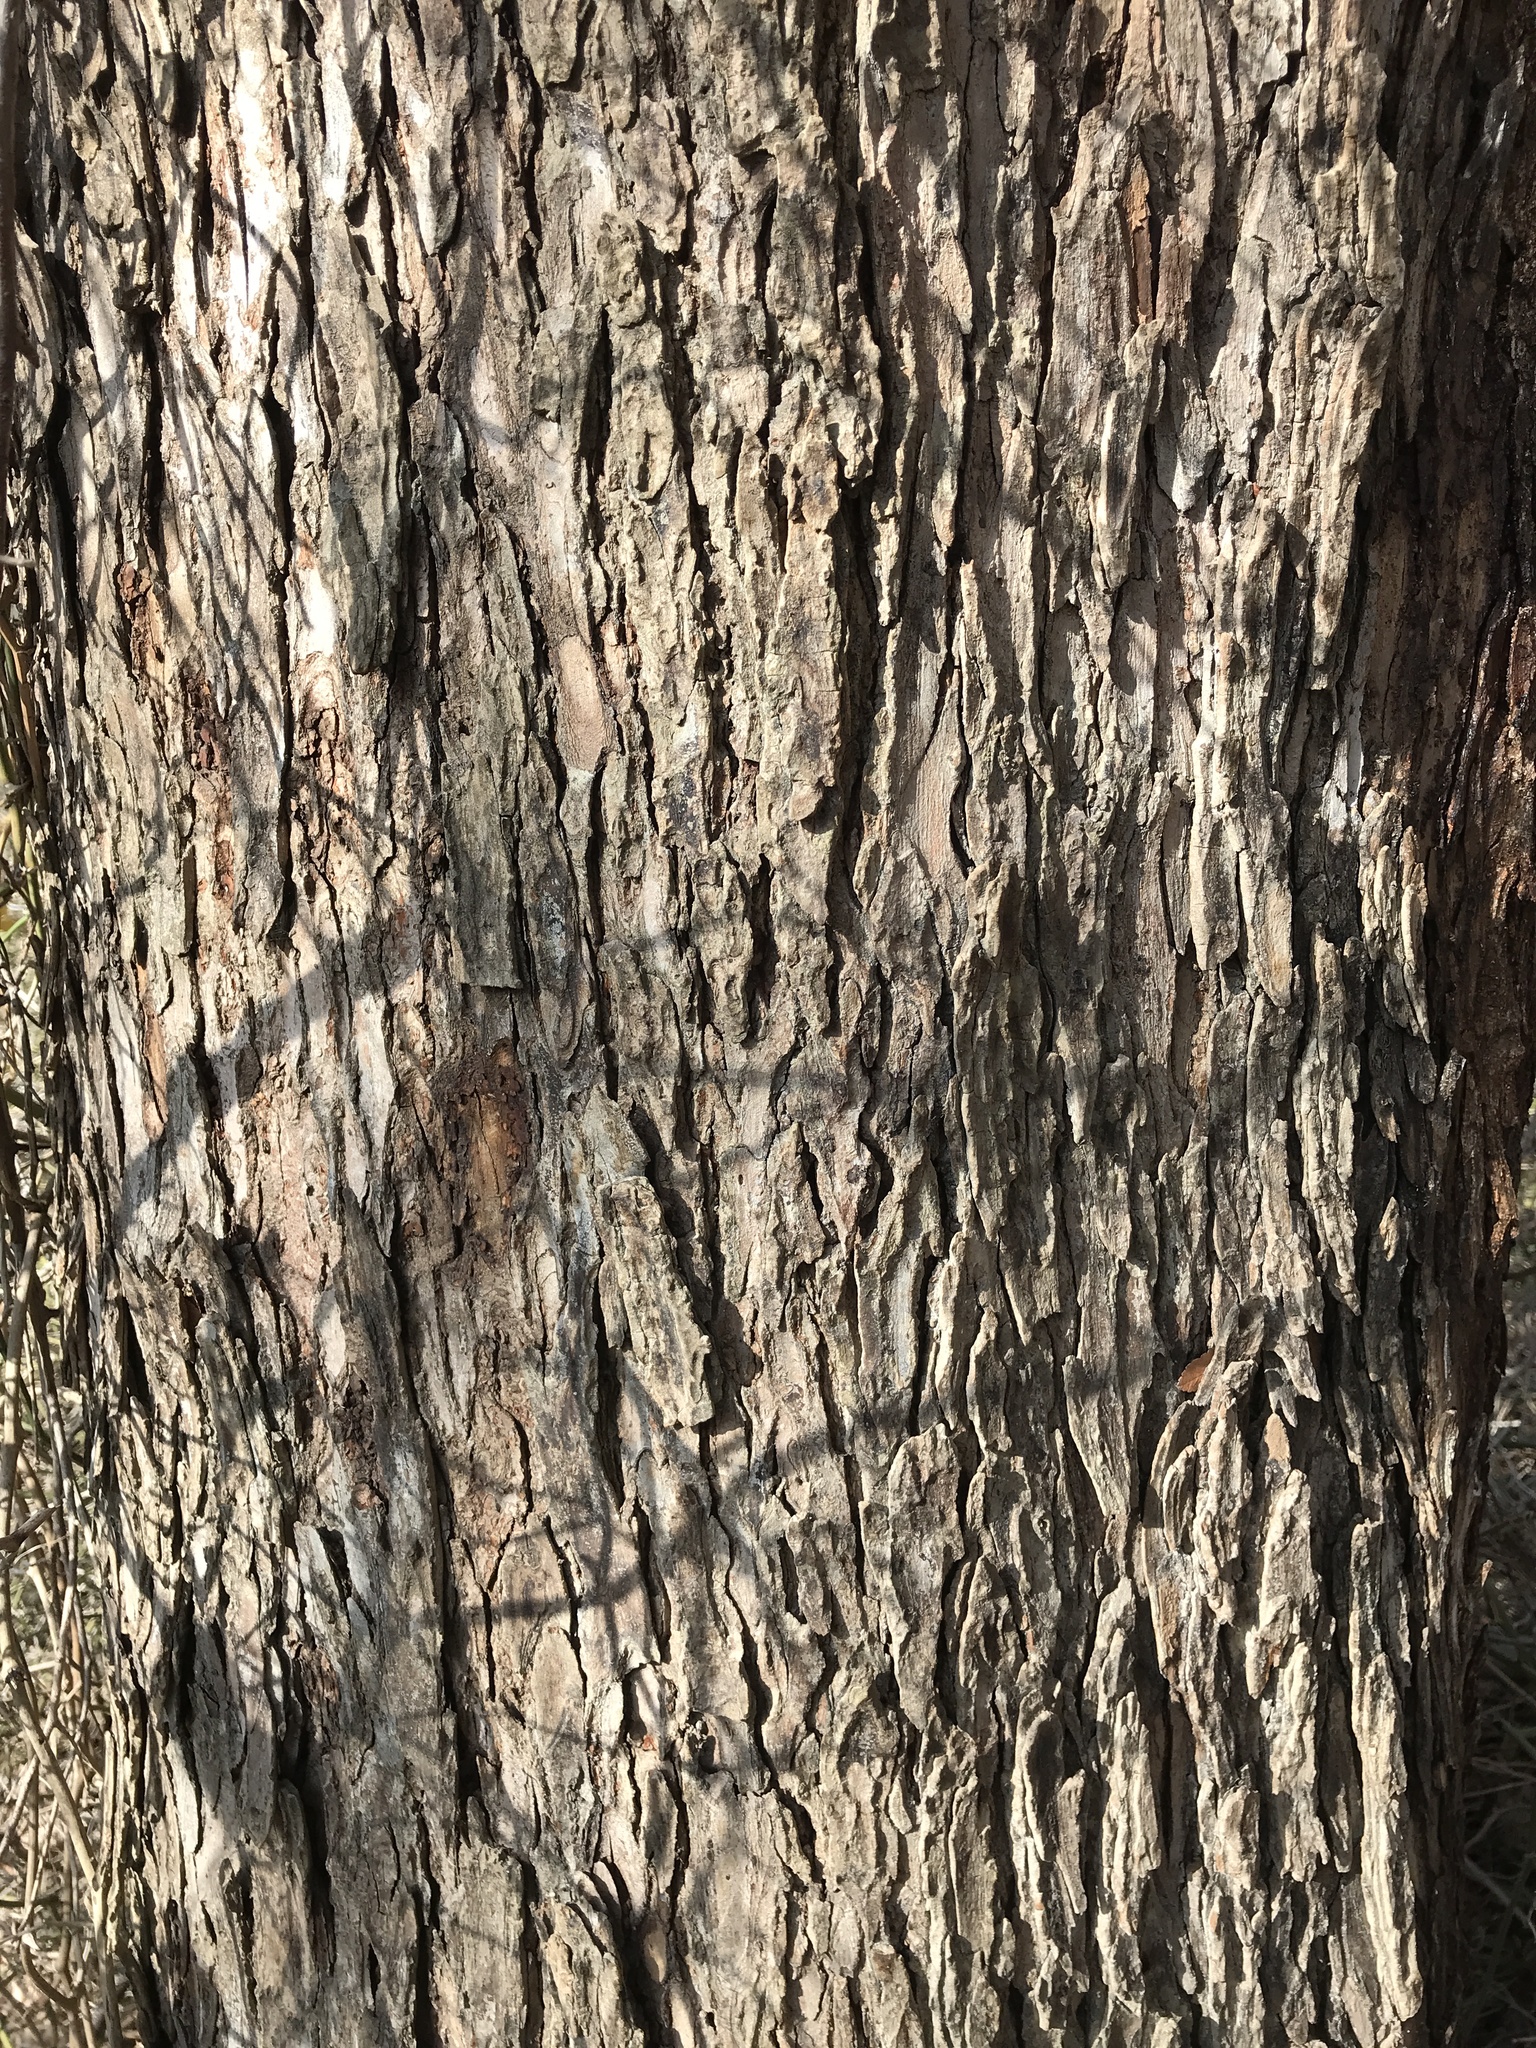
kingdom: Plantae
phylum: Tracheophyta
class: Magnoliopsida
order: Rosales
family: Ulmaceae
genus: Ulmus
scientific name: Ulmus crassifolia
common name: Basket elm
